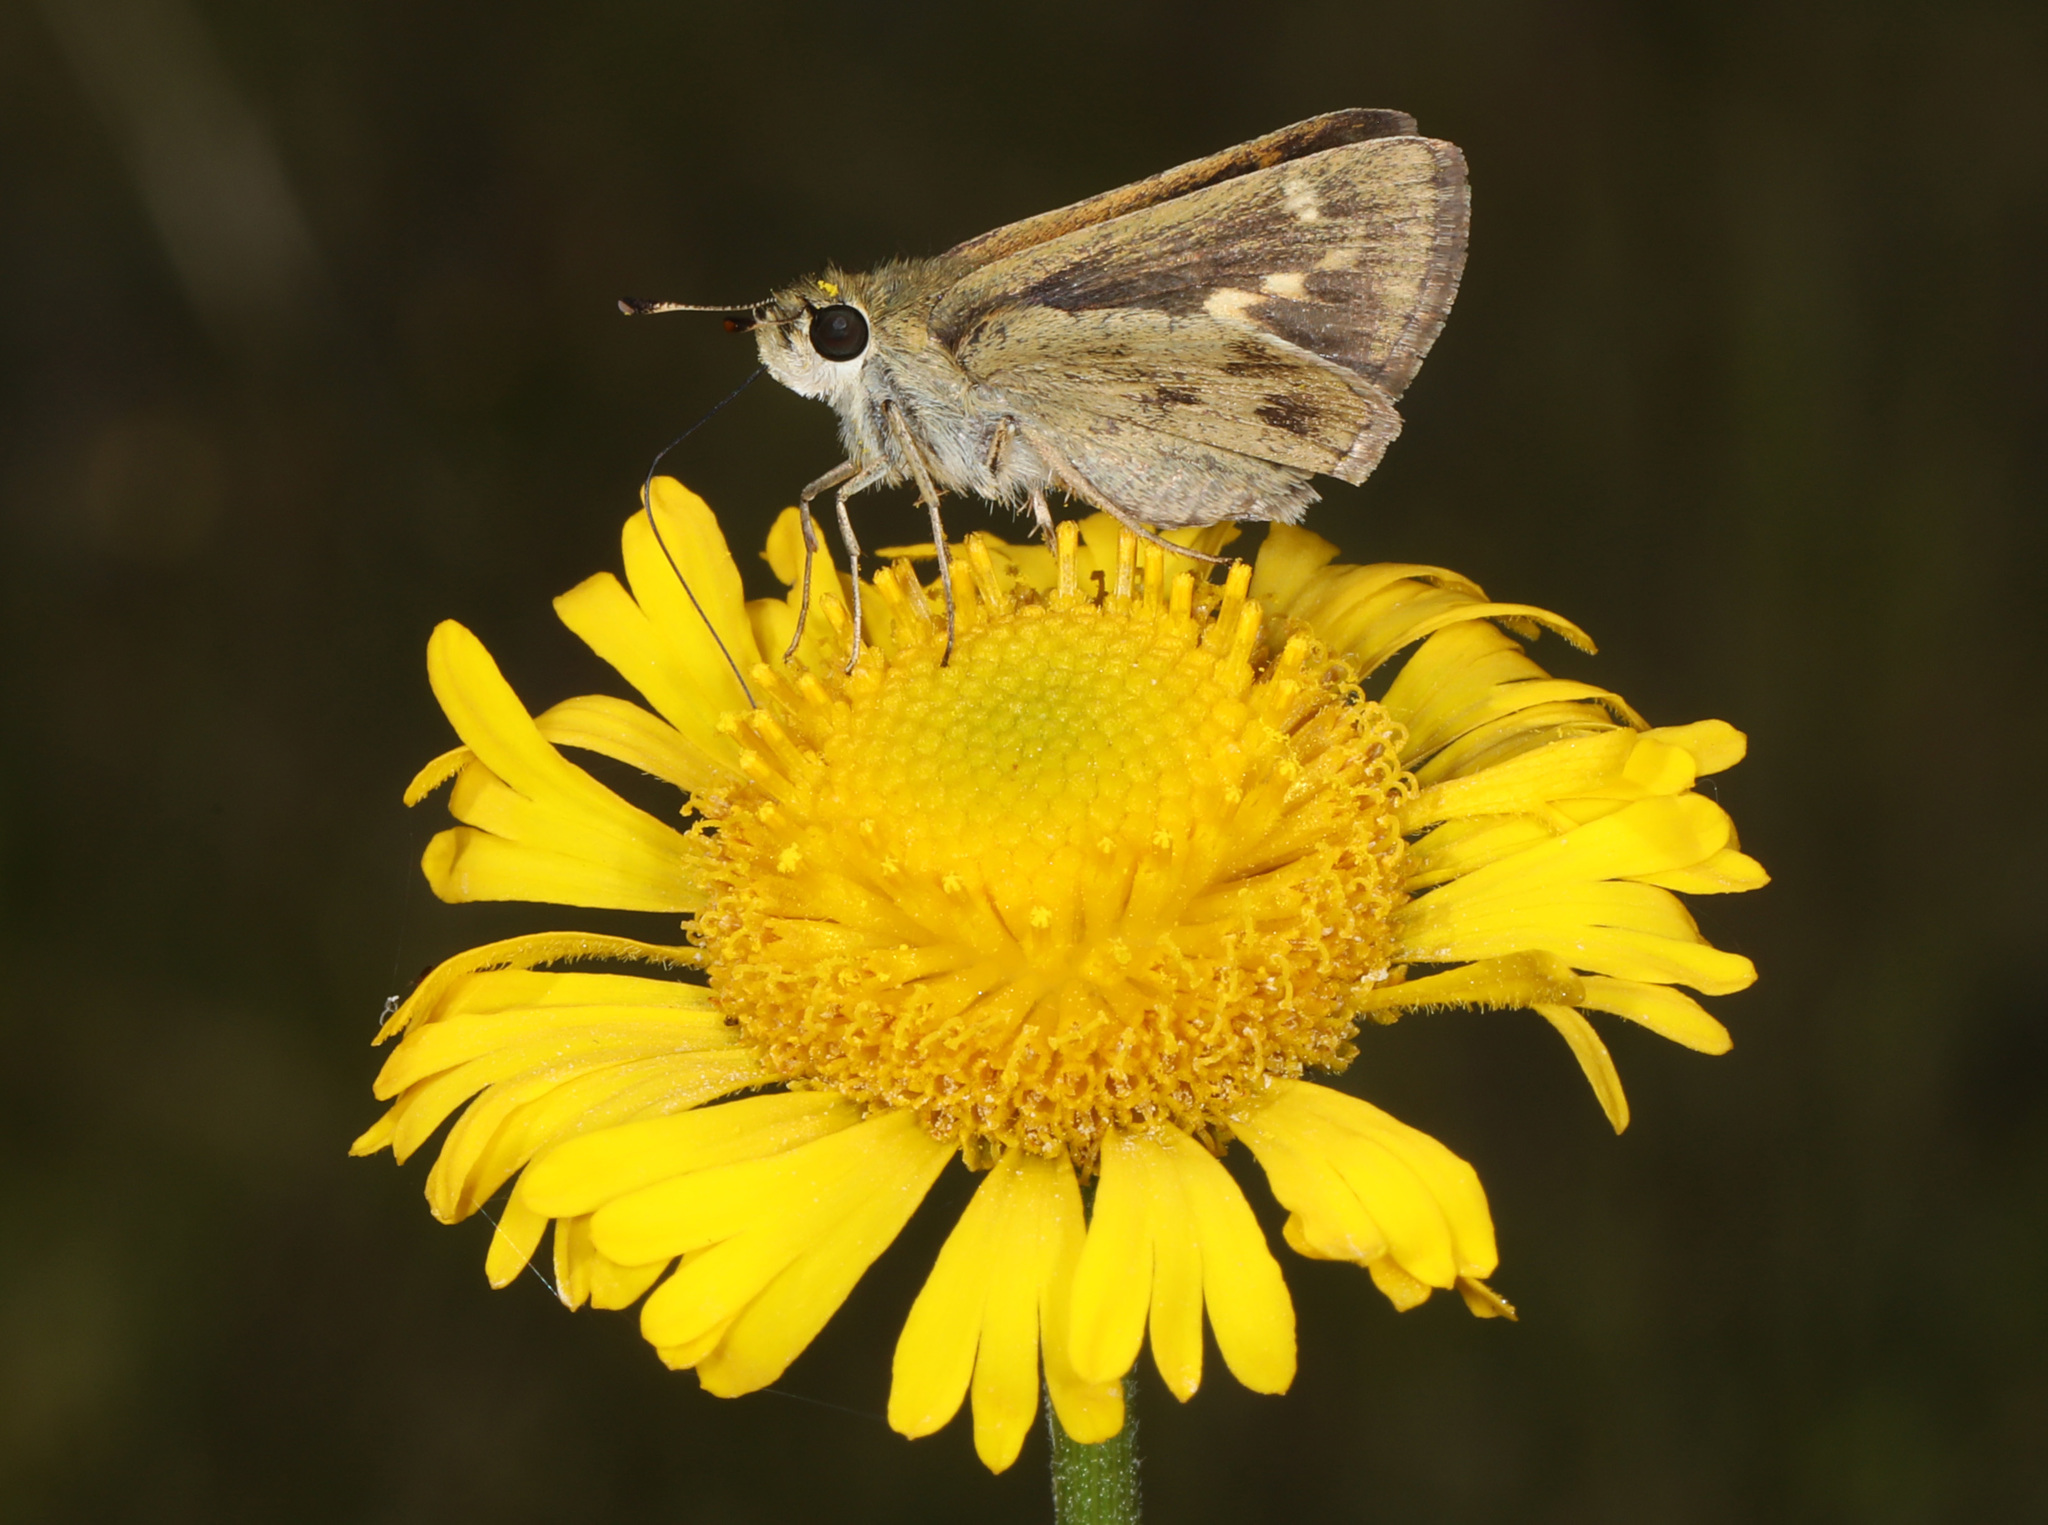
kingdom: Animalia
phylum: Arthropoda
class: Insecta
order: Lepidoptera
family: Hesperiidae
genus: Polites
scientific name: Polites vibex
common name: Whirlabout
